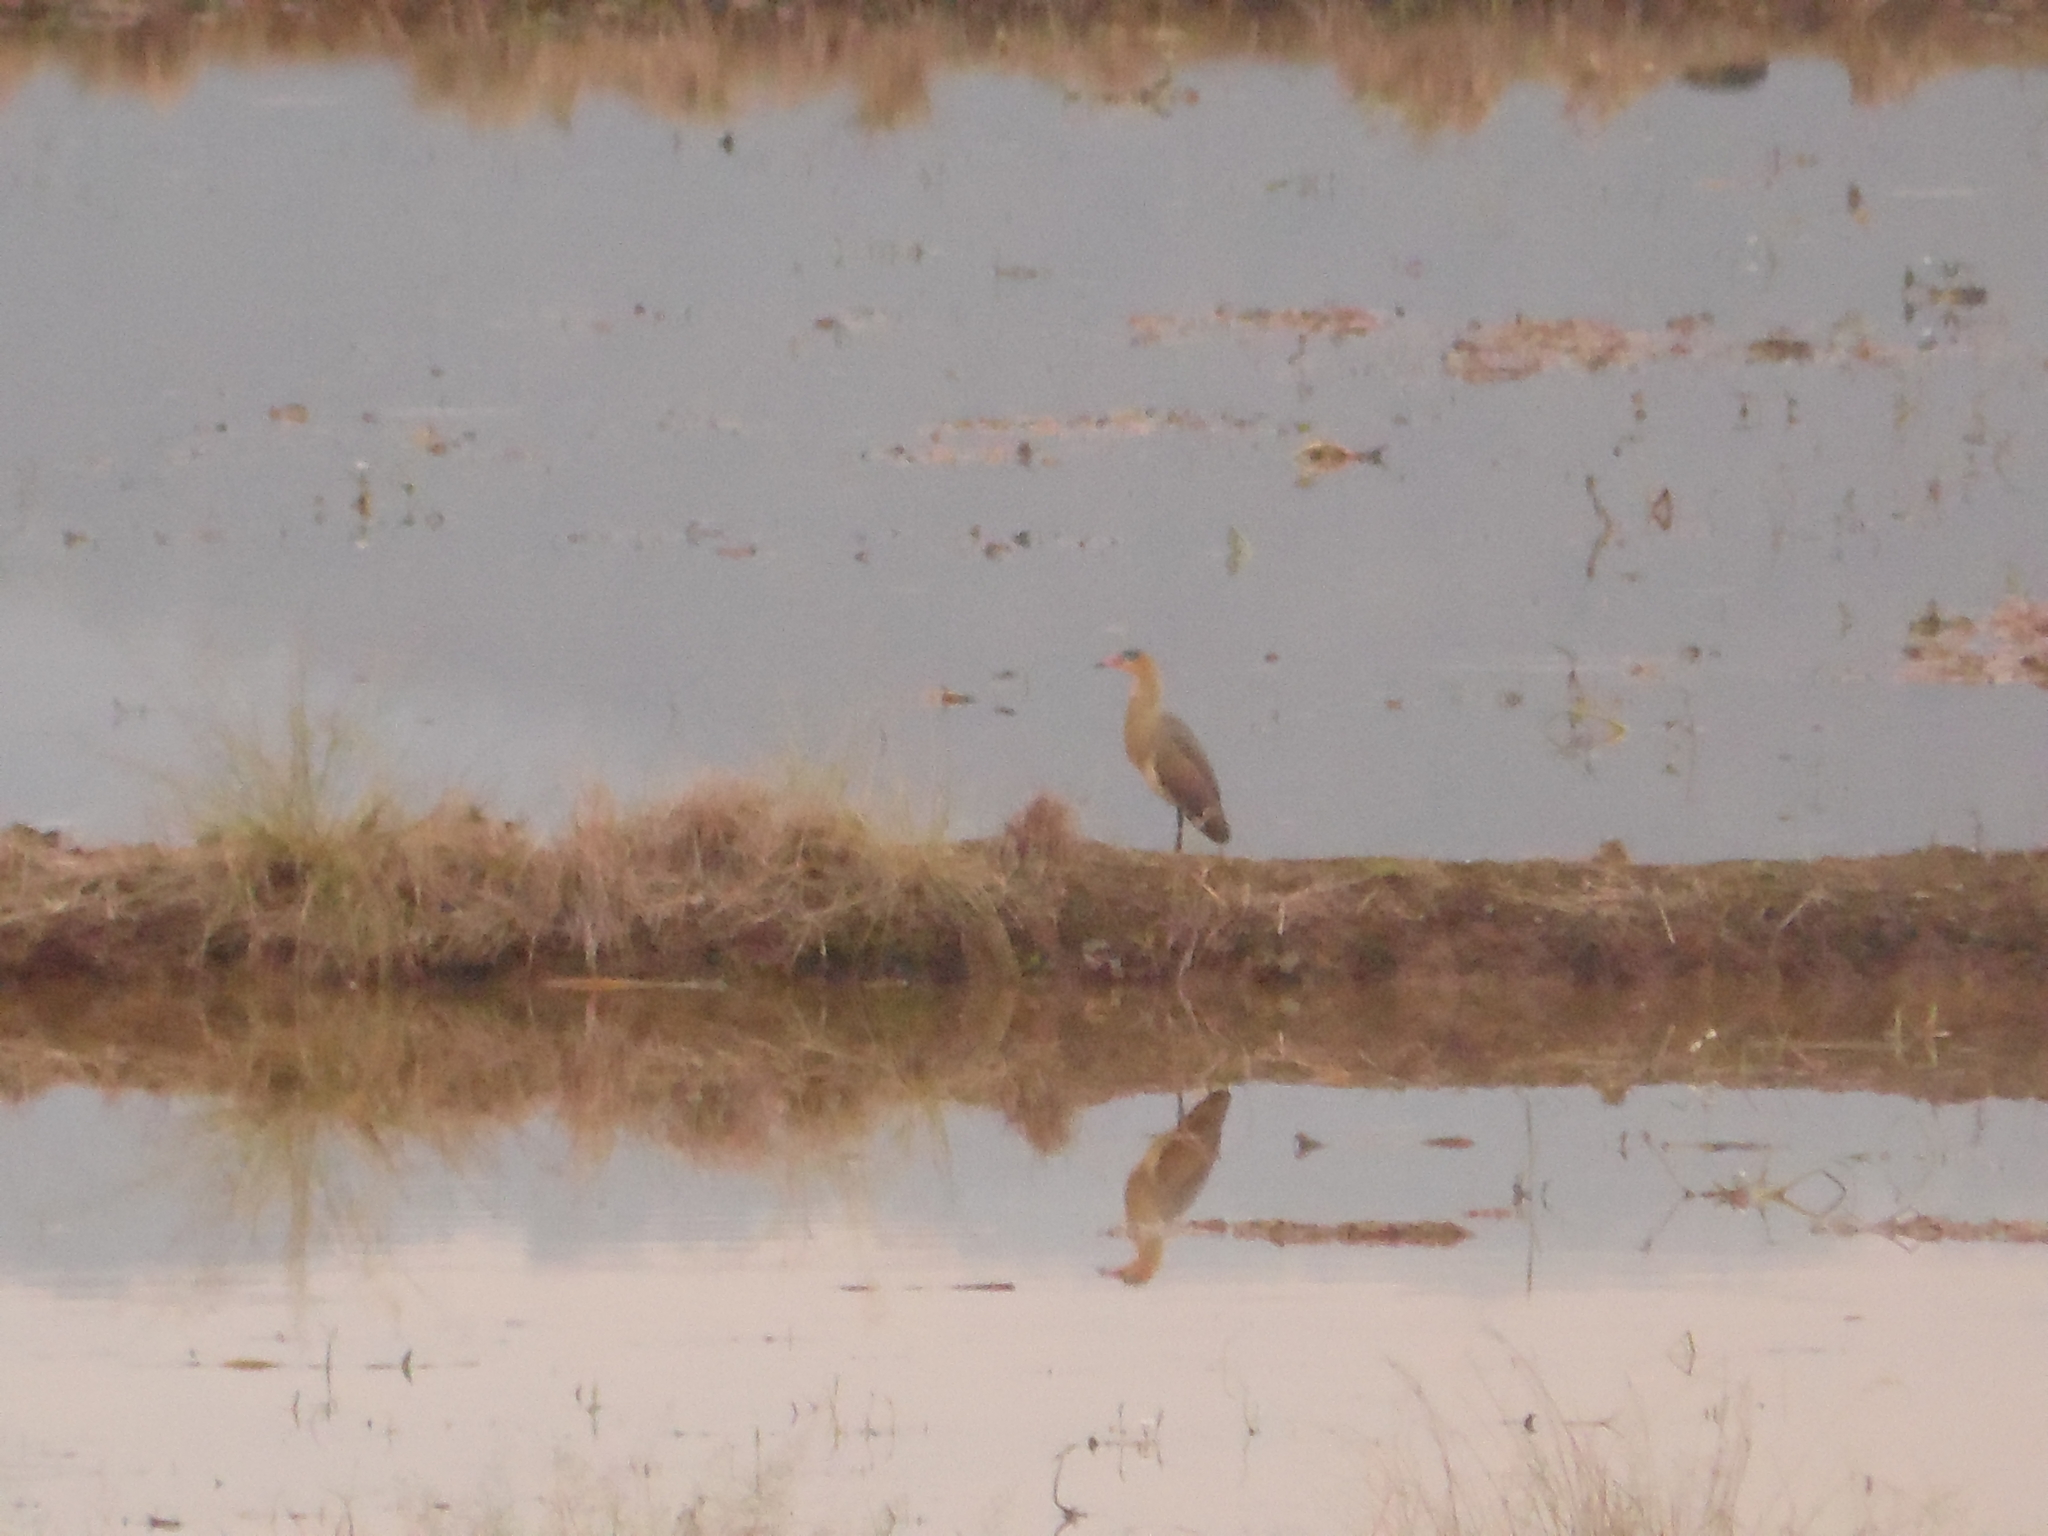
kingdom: Animalia
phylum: Chordata
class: Aves
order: Pelecaniformes
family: Ardeidae
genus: Syrigma
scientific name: Syrigma sibilatrix
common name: Whistling heron
